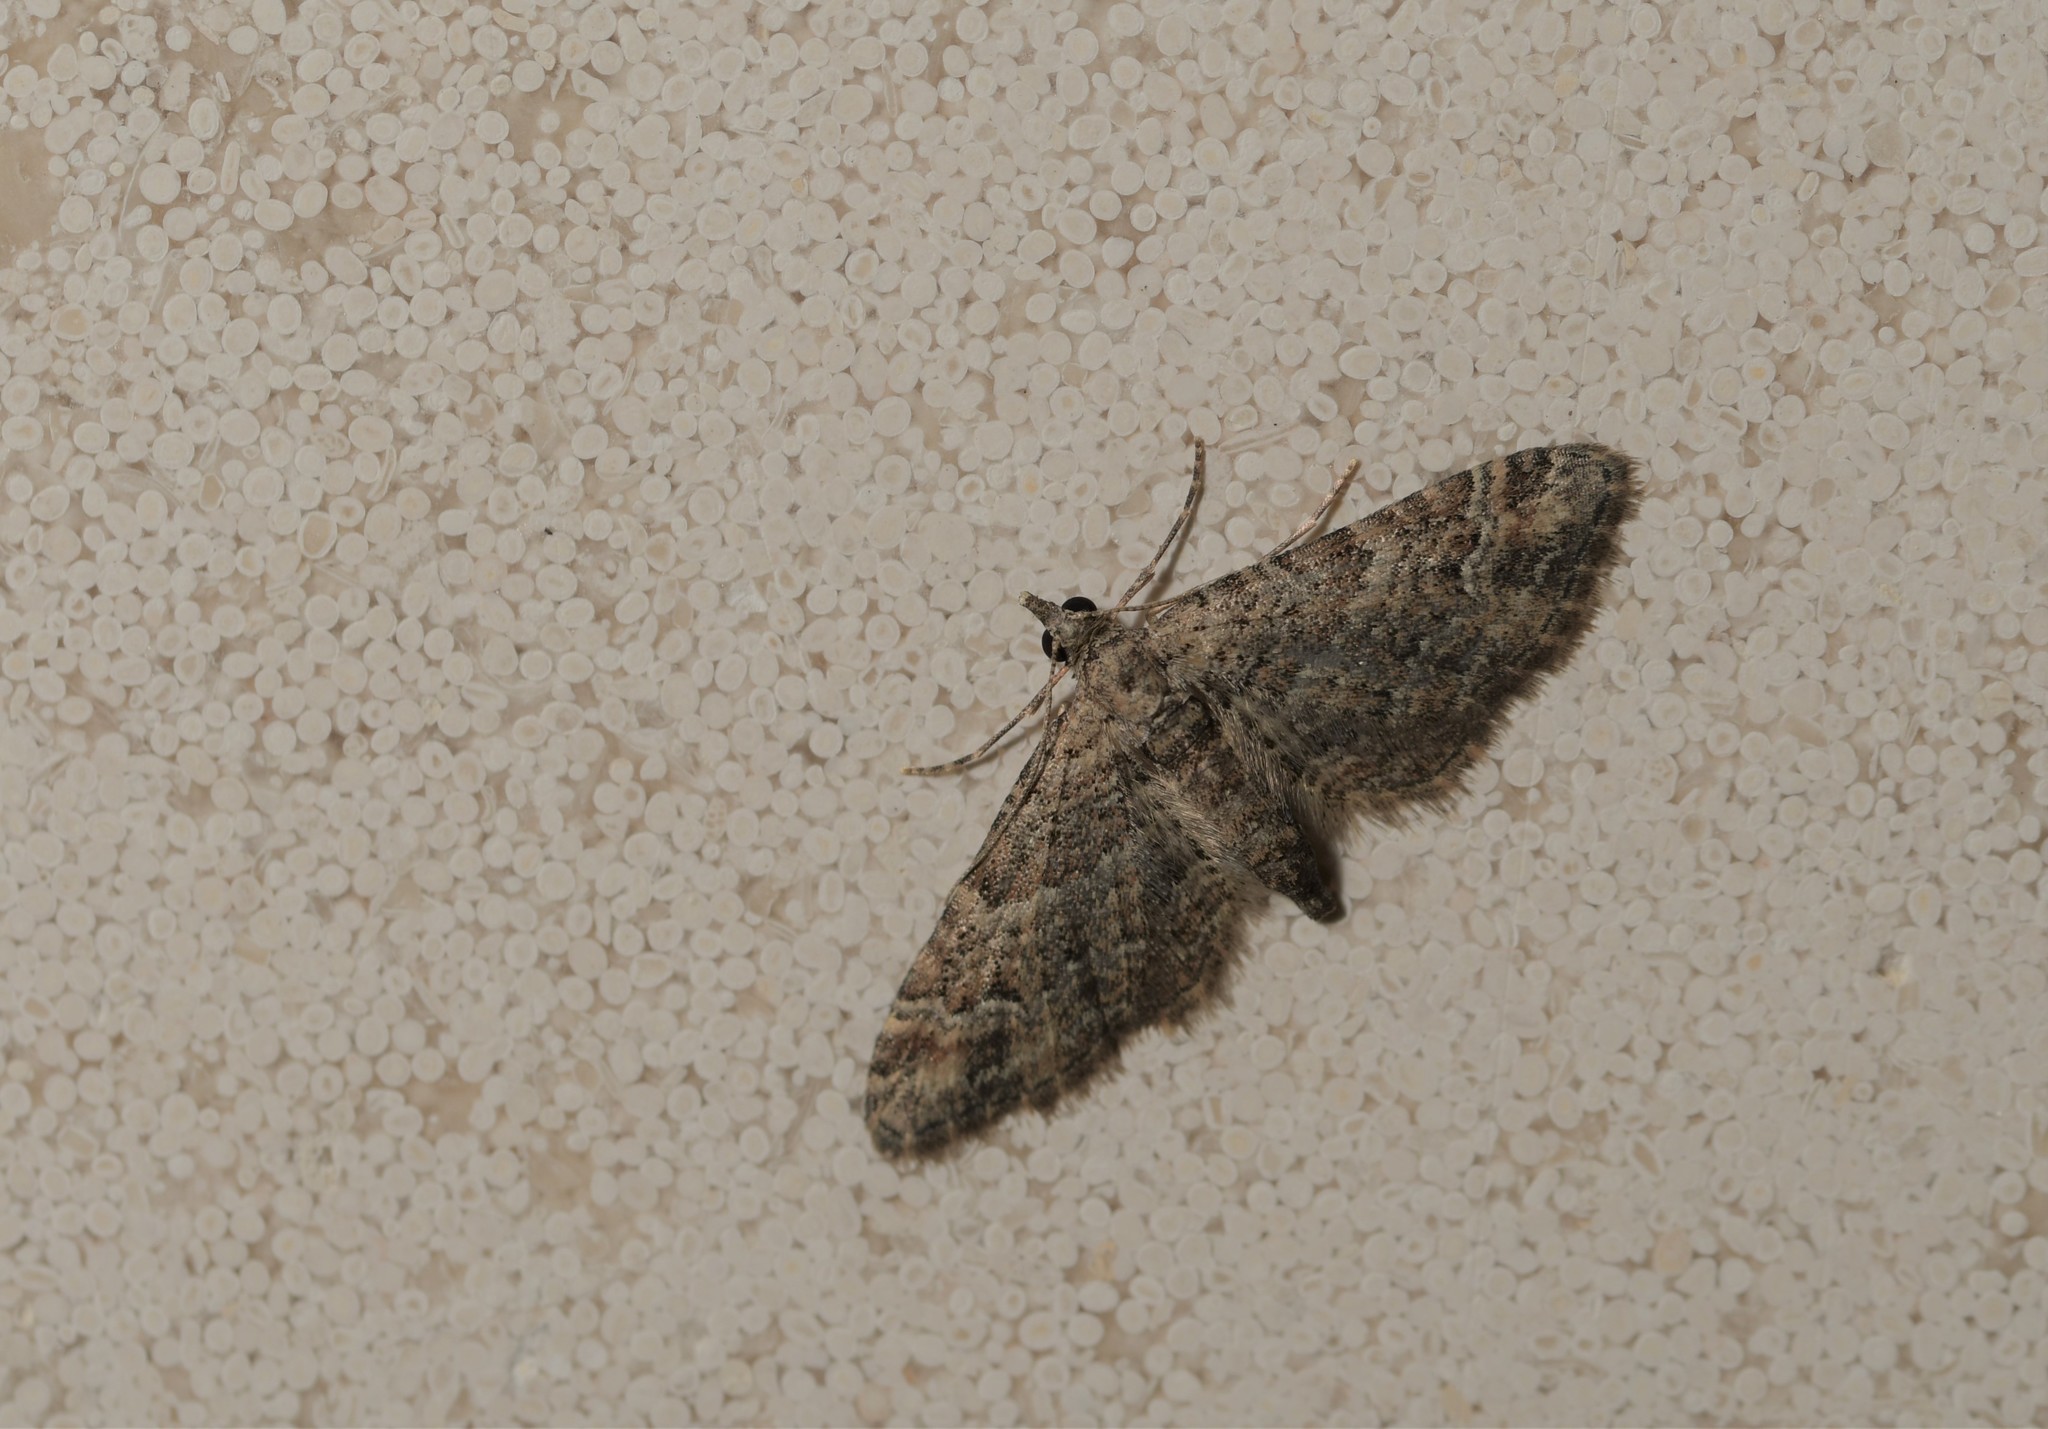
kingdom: Animalia
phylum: Arthropoda
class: Insecta
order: Lepidoptera
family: Geometridae
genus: Gymnoscelis
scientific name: Gymnoscelis rufifasciata
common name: Double-striped pug
